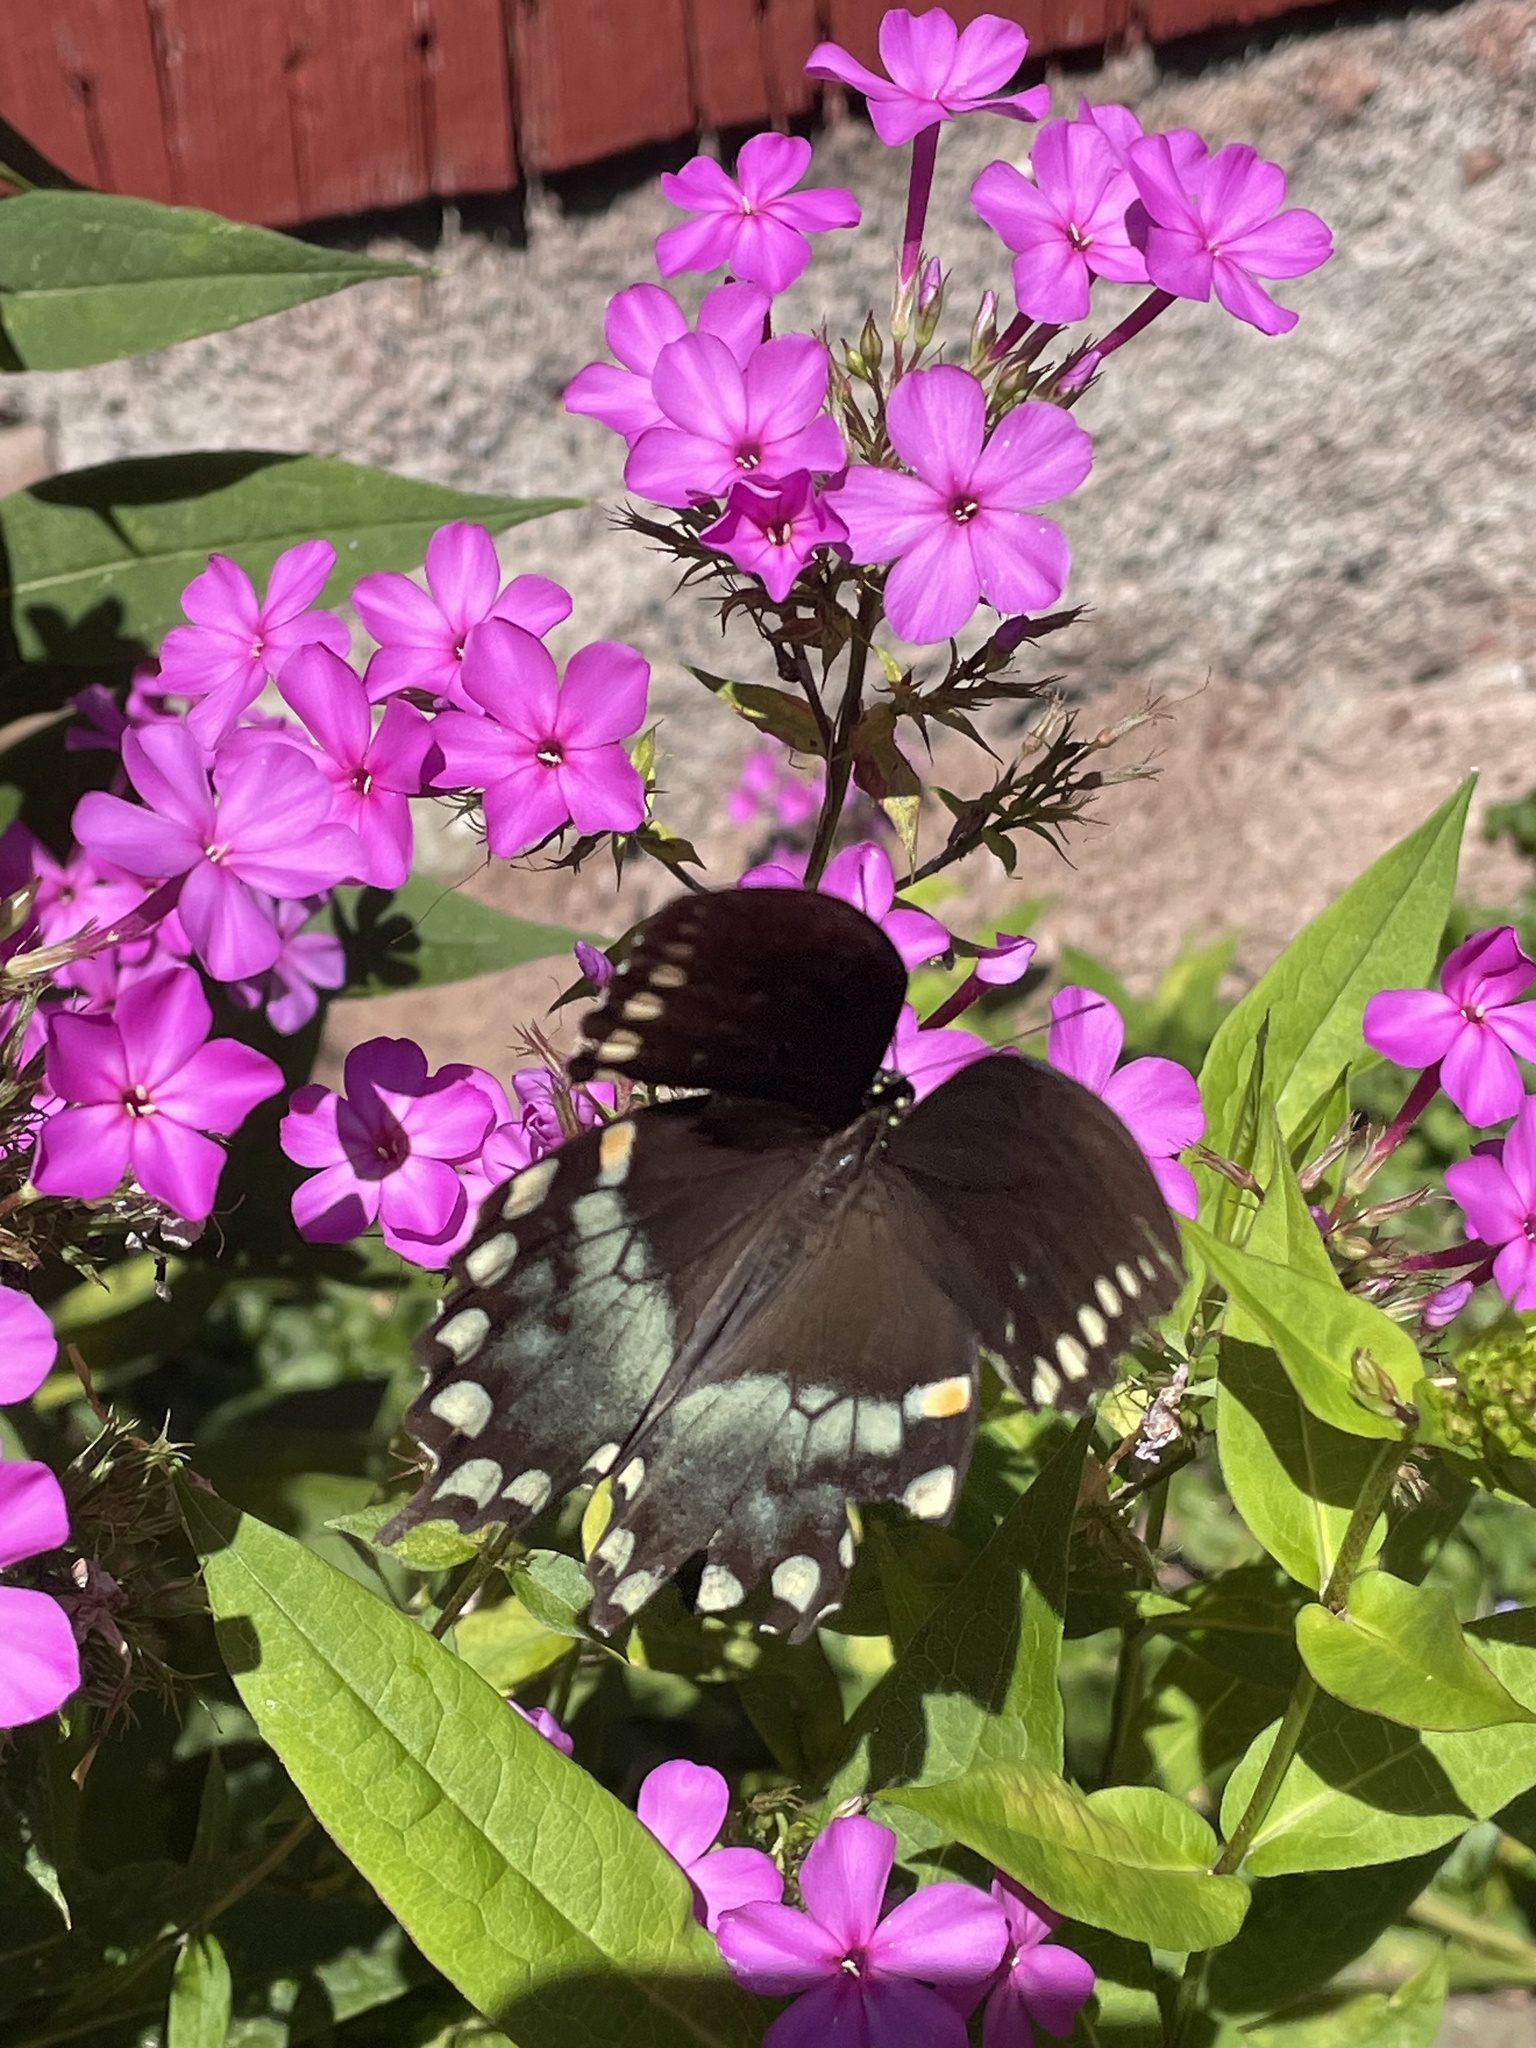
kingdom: Animalia
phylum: Arthropoda
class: Insecta
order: Lepidoptera
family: Papilionidae
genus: Papilio
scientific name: Papilio troilus
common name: Spicebush swallowtail
